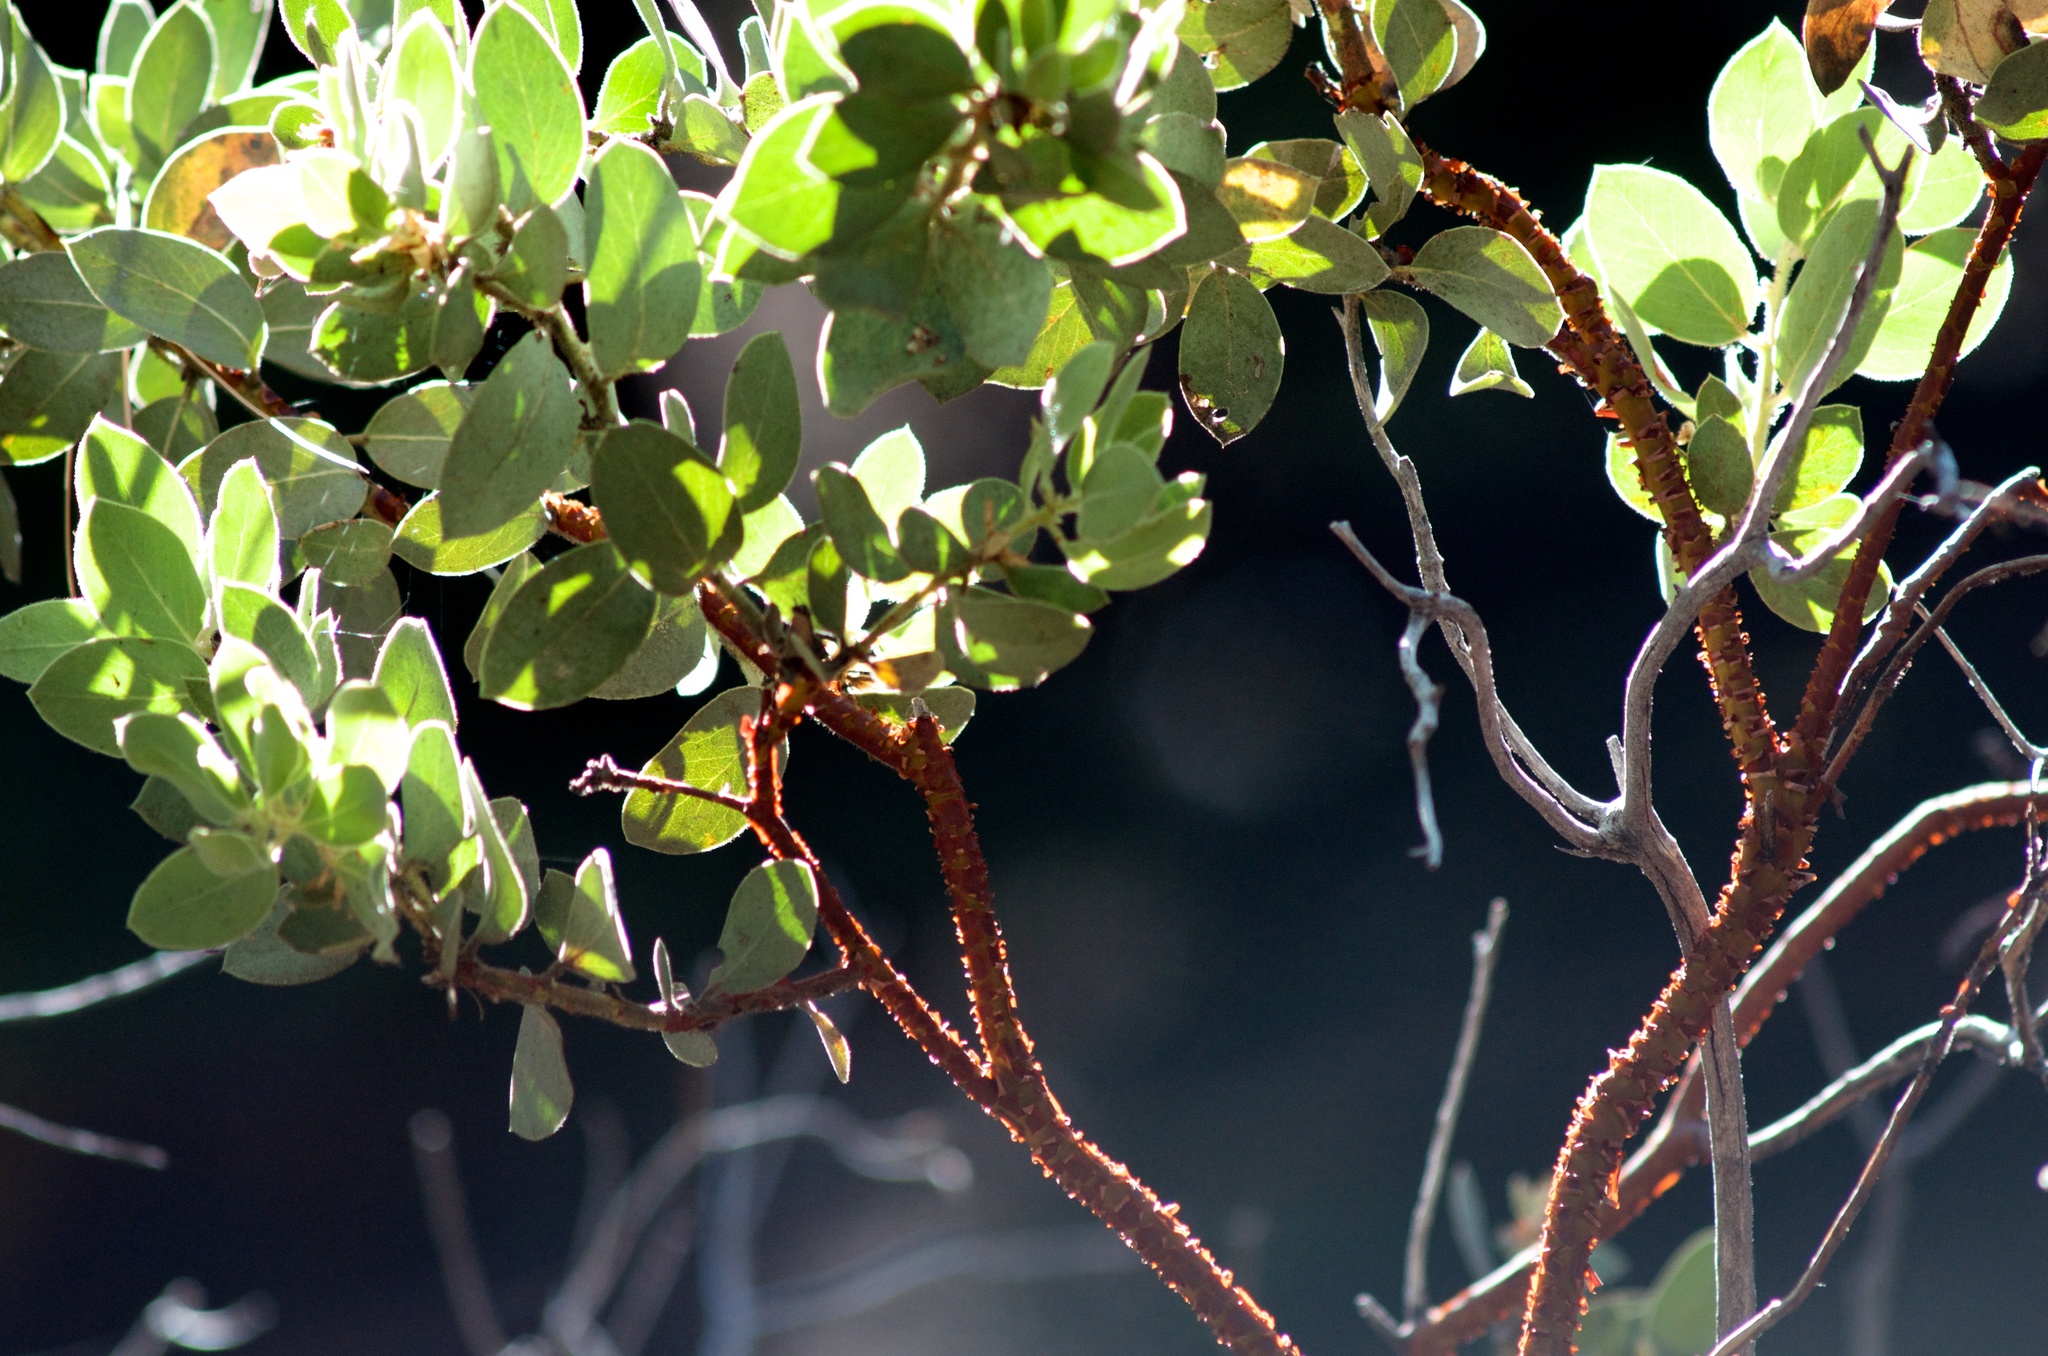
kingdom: Plantae
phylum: Tracheophyta
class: Magnoliopsida
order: Ericales
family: Ericaceae
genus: Arctostaphylos
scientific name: Arctostaphylos pringlei
